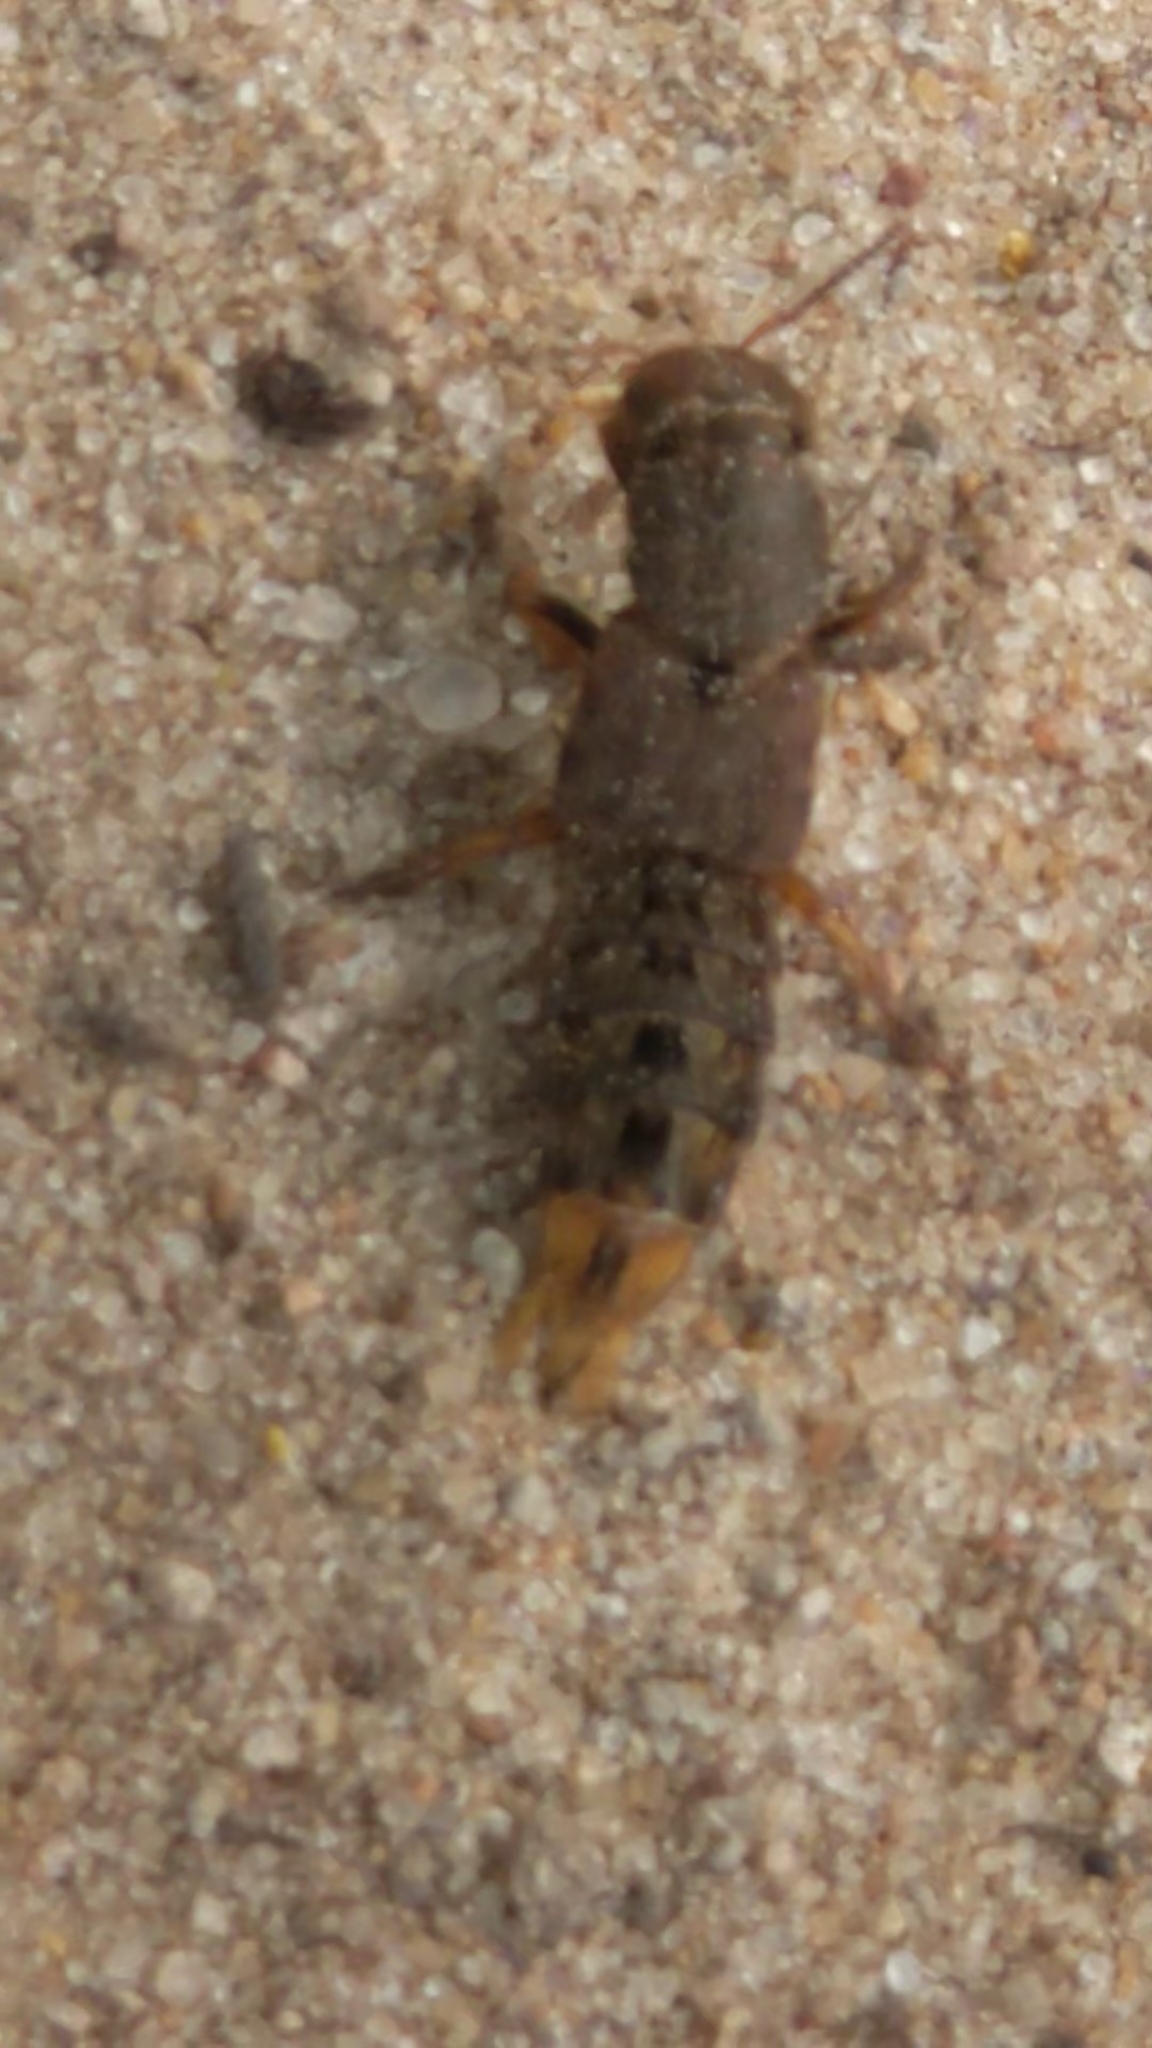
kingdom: Animalia
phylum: Arthropoda
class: Insecta
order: Coleoptera
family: Staphylinidae
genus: Platydracus
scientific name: Platydracus maculosus
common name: Brown rove beetle
